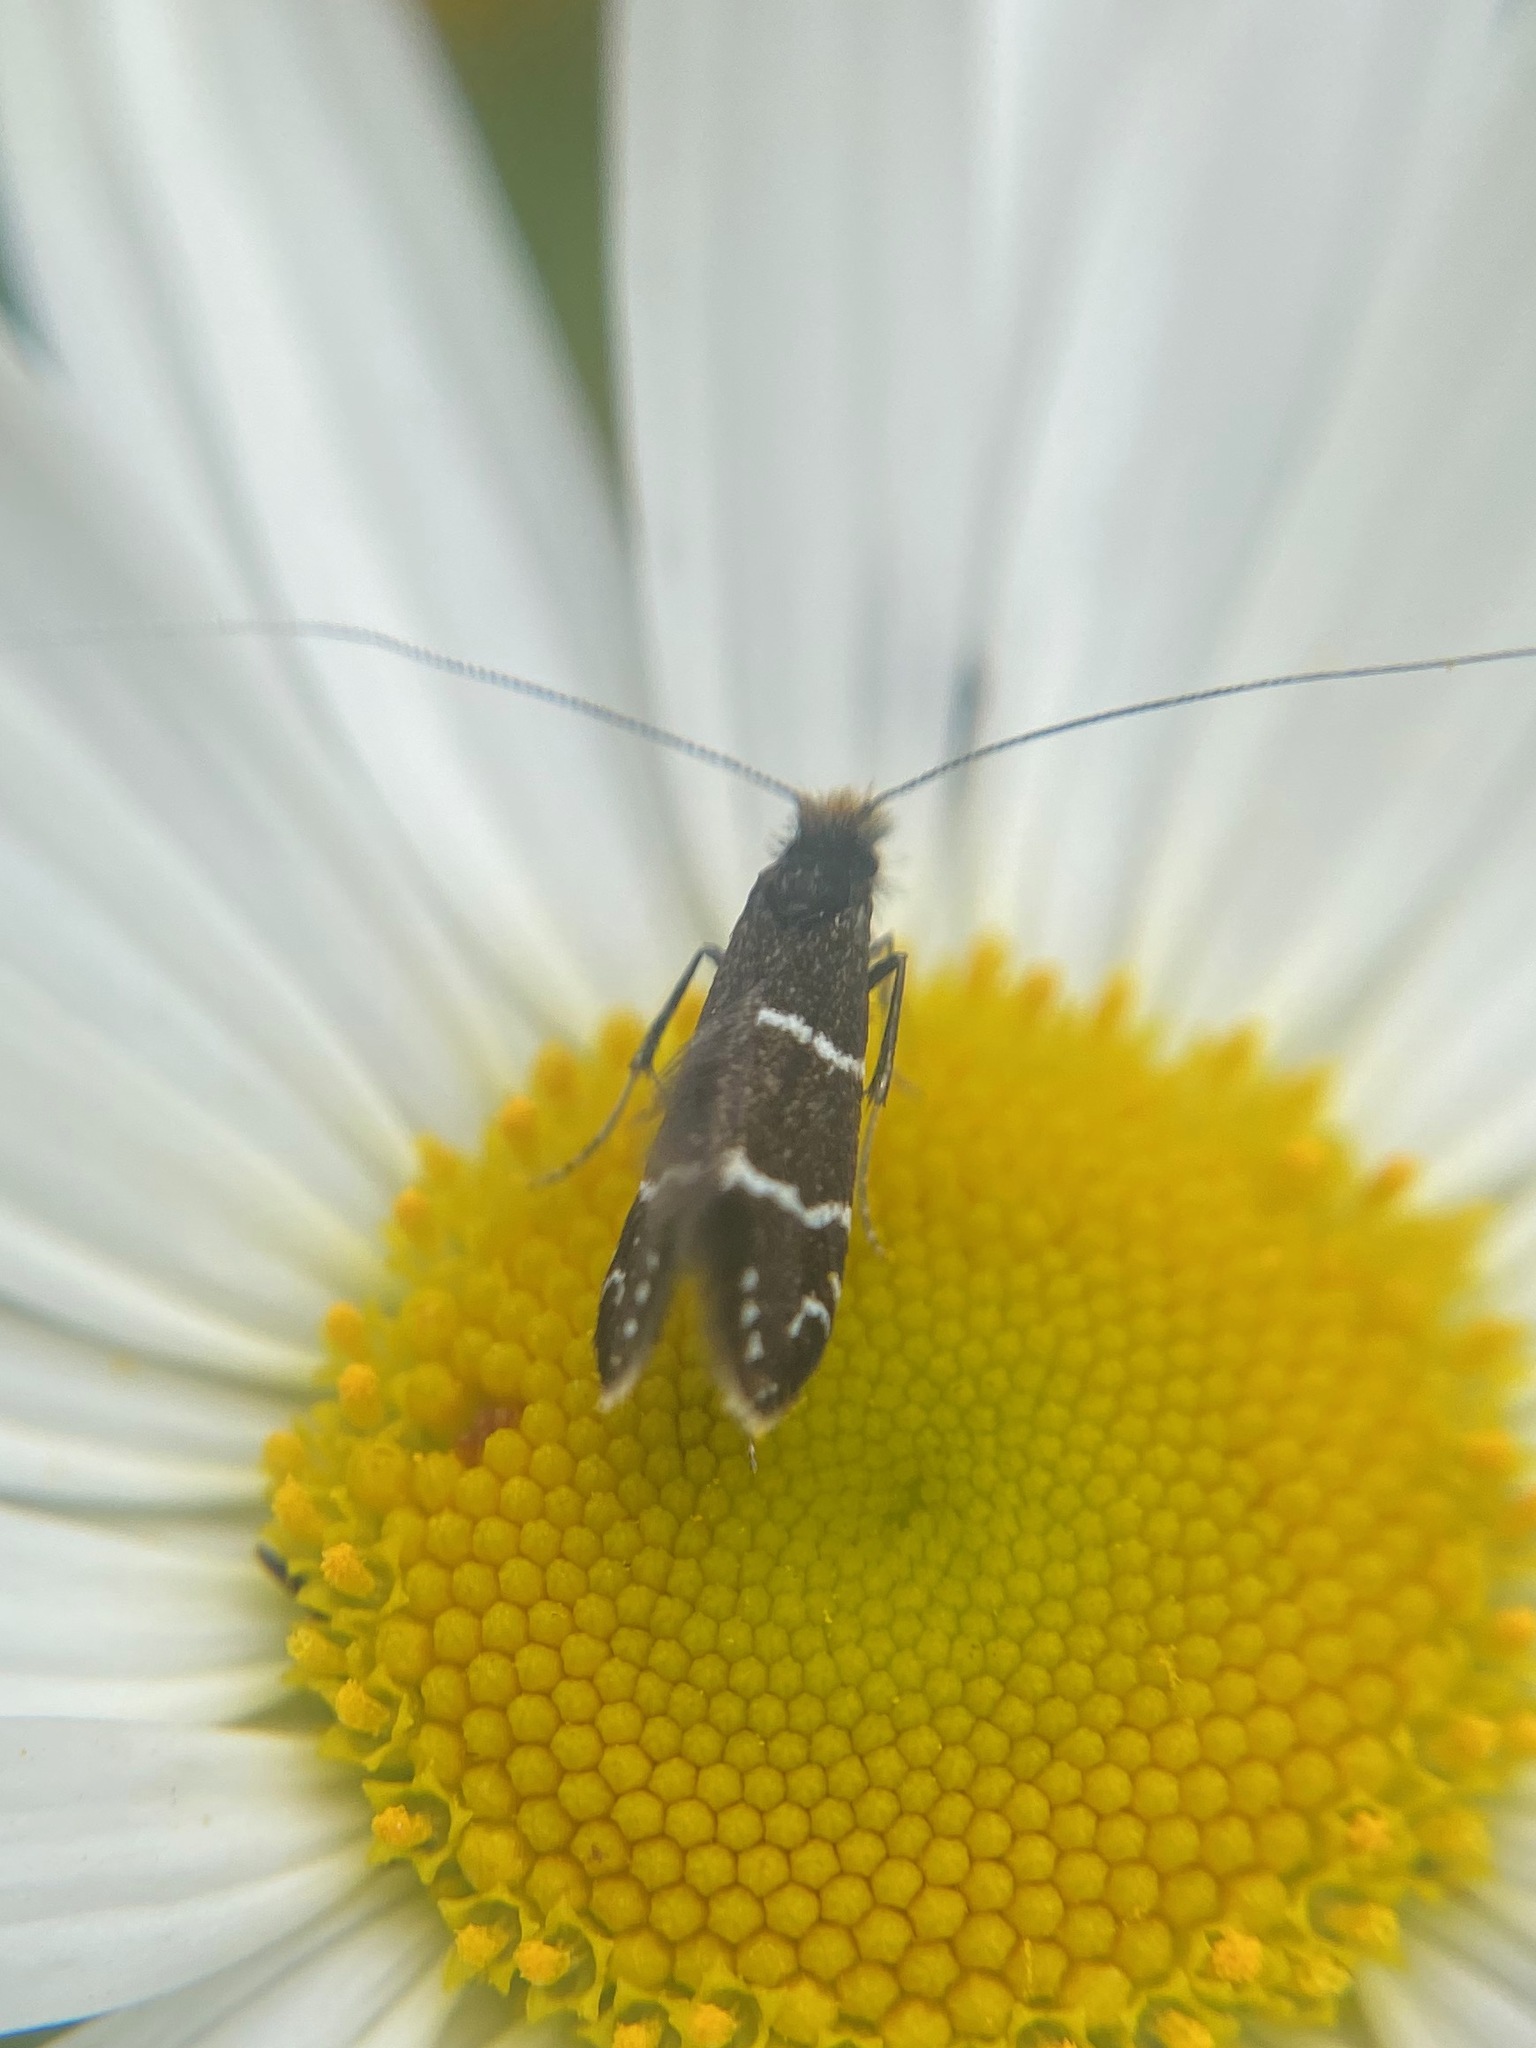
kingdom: Animalia
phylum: Arthropoda
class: Insecta
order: Lepidoptera
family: Adelidae
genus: Adela
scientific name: Adela septentrionella
